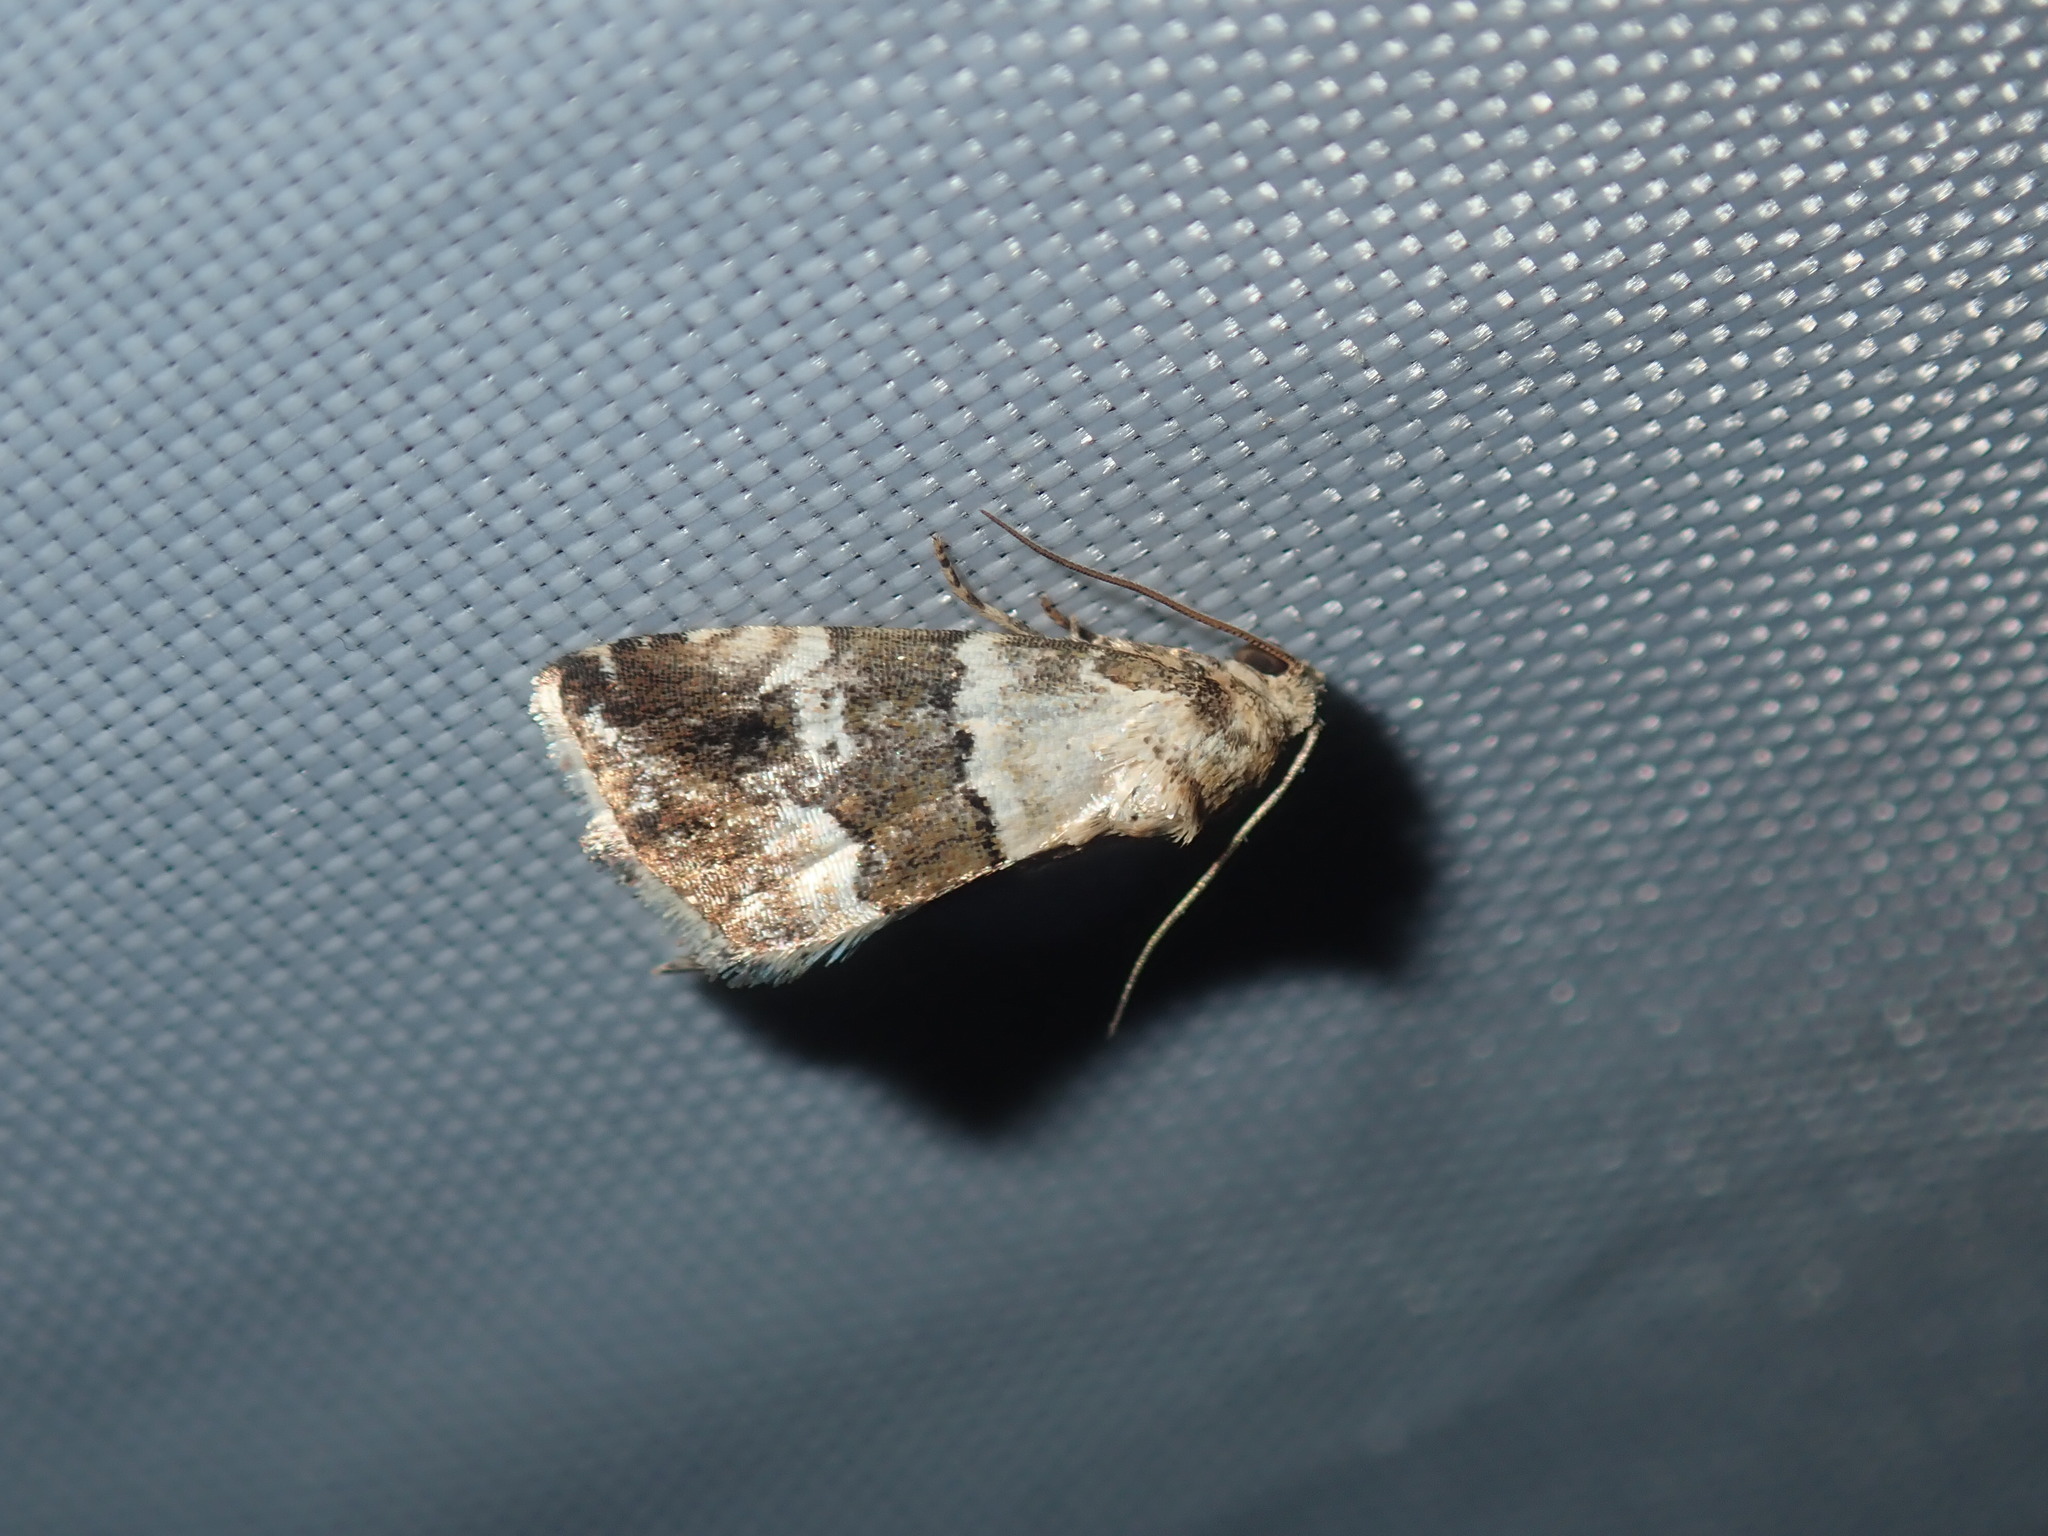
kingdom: Animalia
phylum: Arthropoda
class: Insecta
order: Lepidoptera
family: Noctuidae
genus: Maliattha
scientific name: Maliattha amorpha
